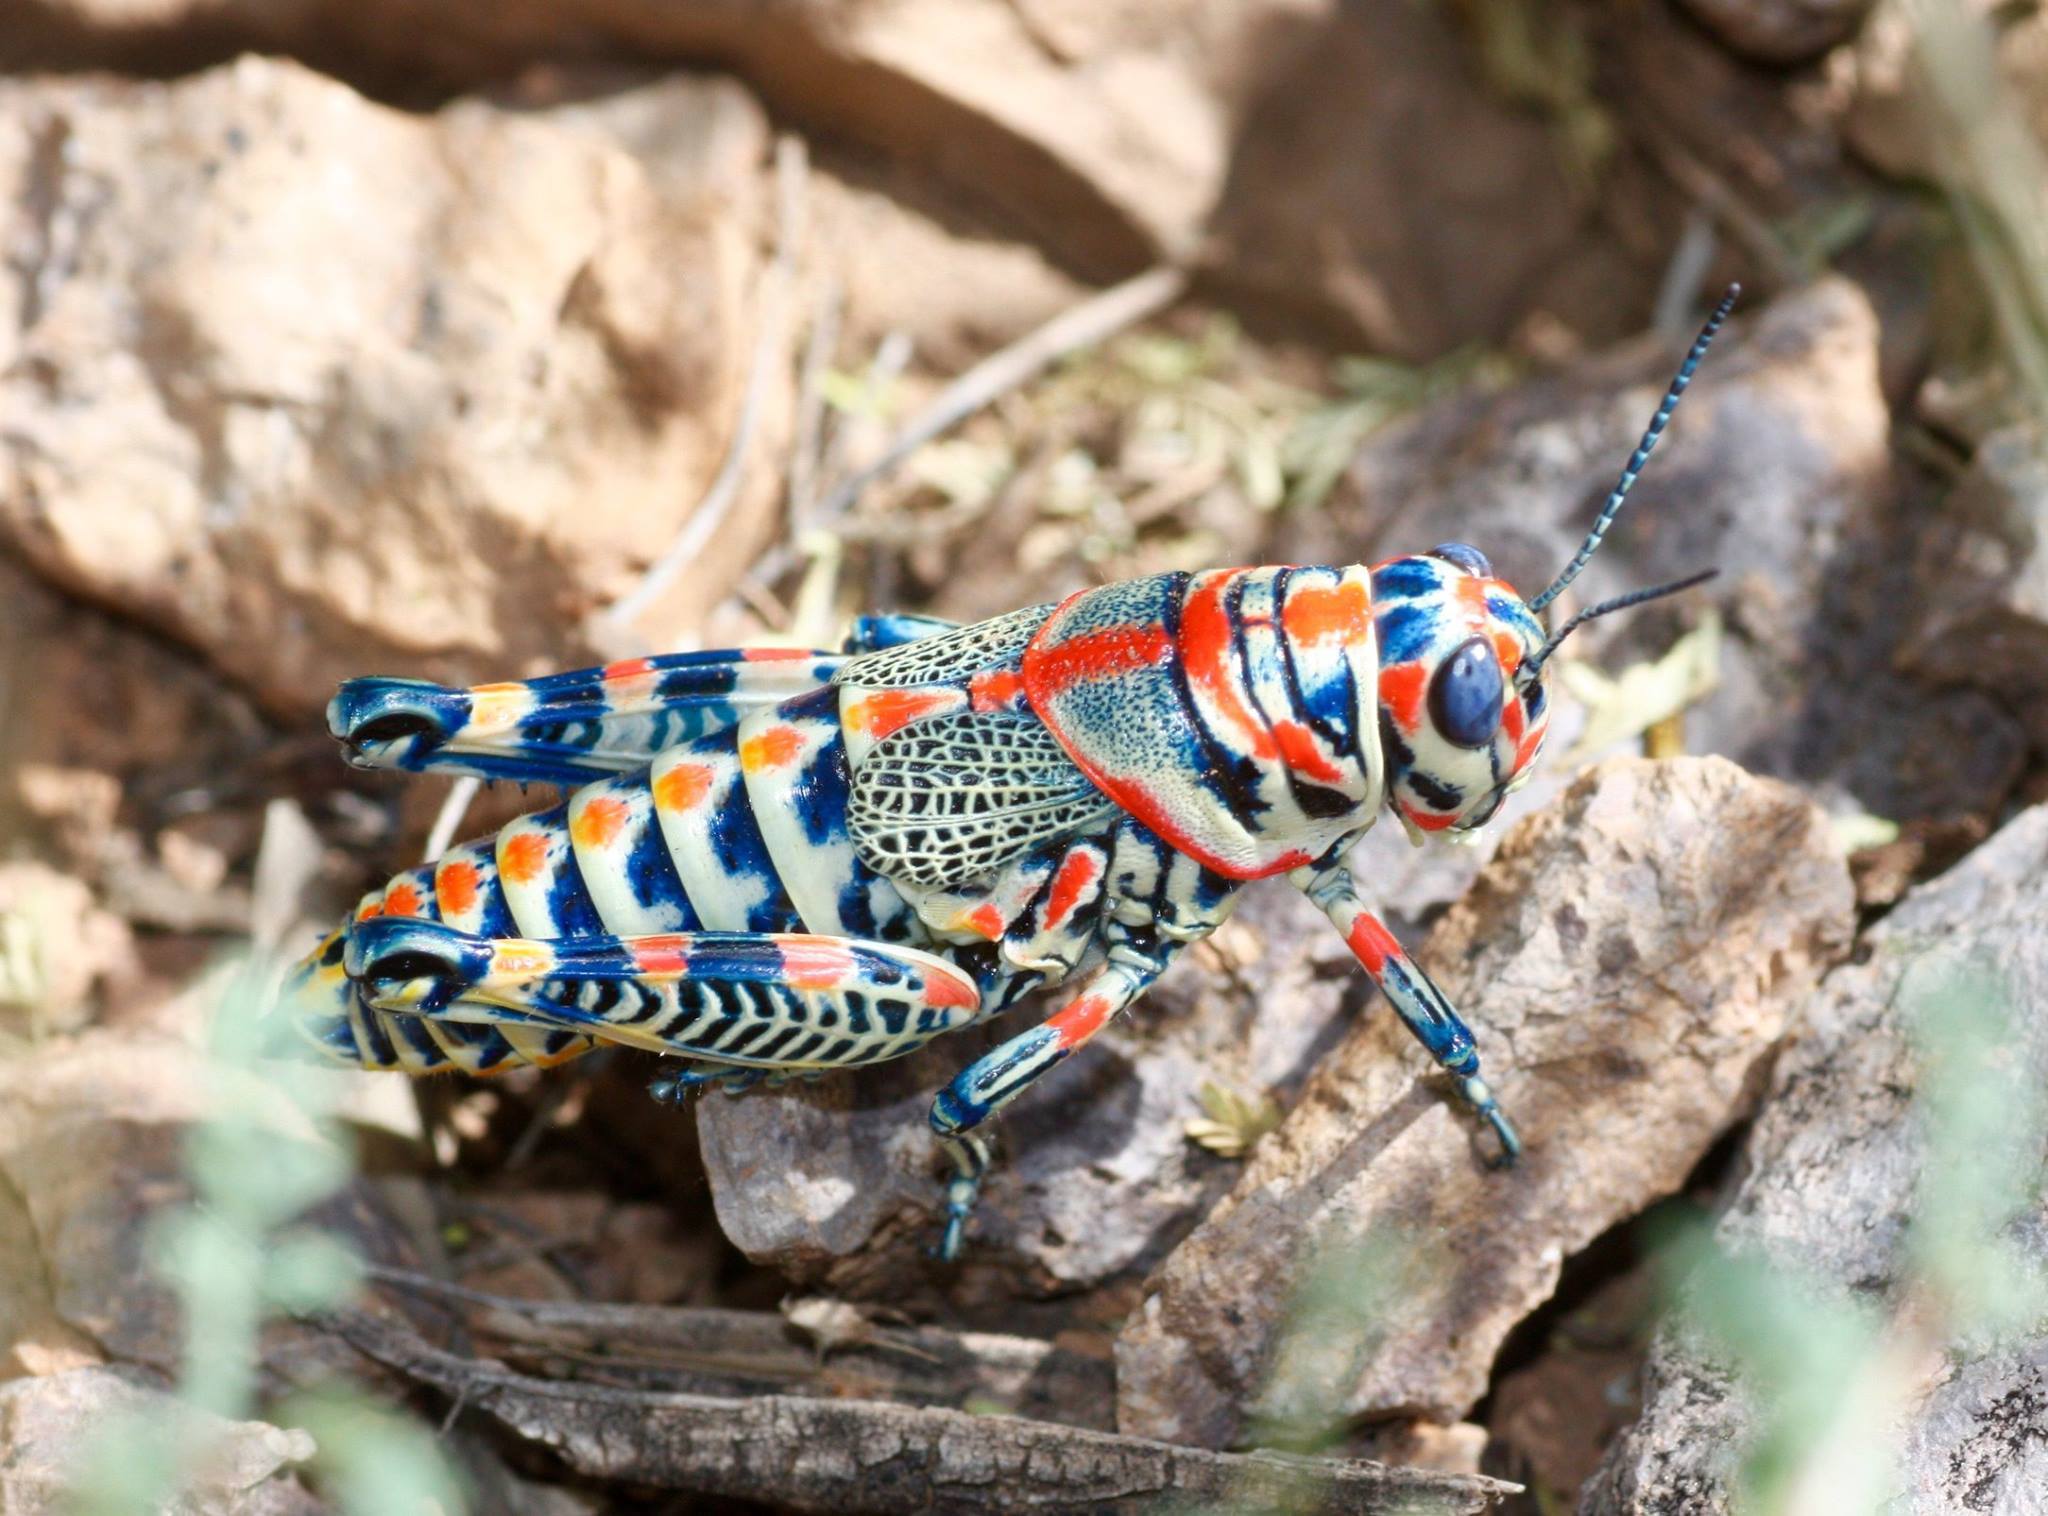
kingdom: Animalia
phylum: Arthropoda
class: Insecta
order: Orthoptera
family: Acrididae
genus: Dactylotum
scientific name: Dactylotum bicolor
